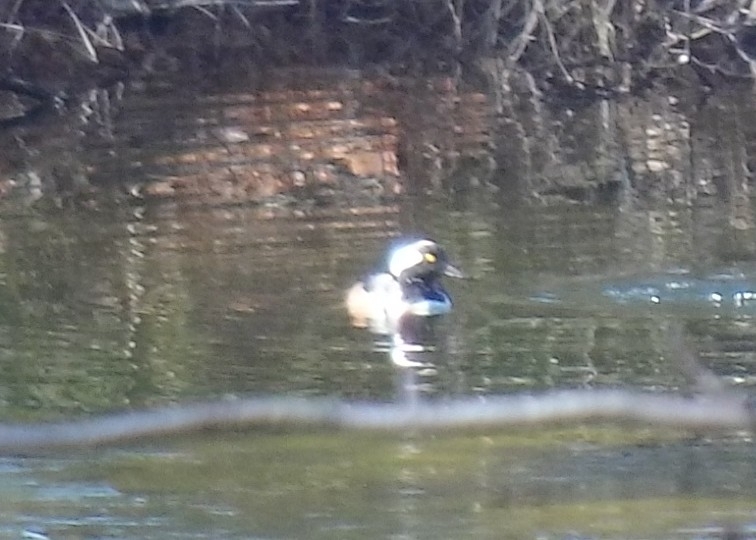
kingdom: Animalia
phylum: Chordata
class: Aves
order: Anseriformes
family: Anatidae
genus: Lophodytes
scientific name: Lophodytes cucullatus
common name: Hooded merganser
